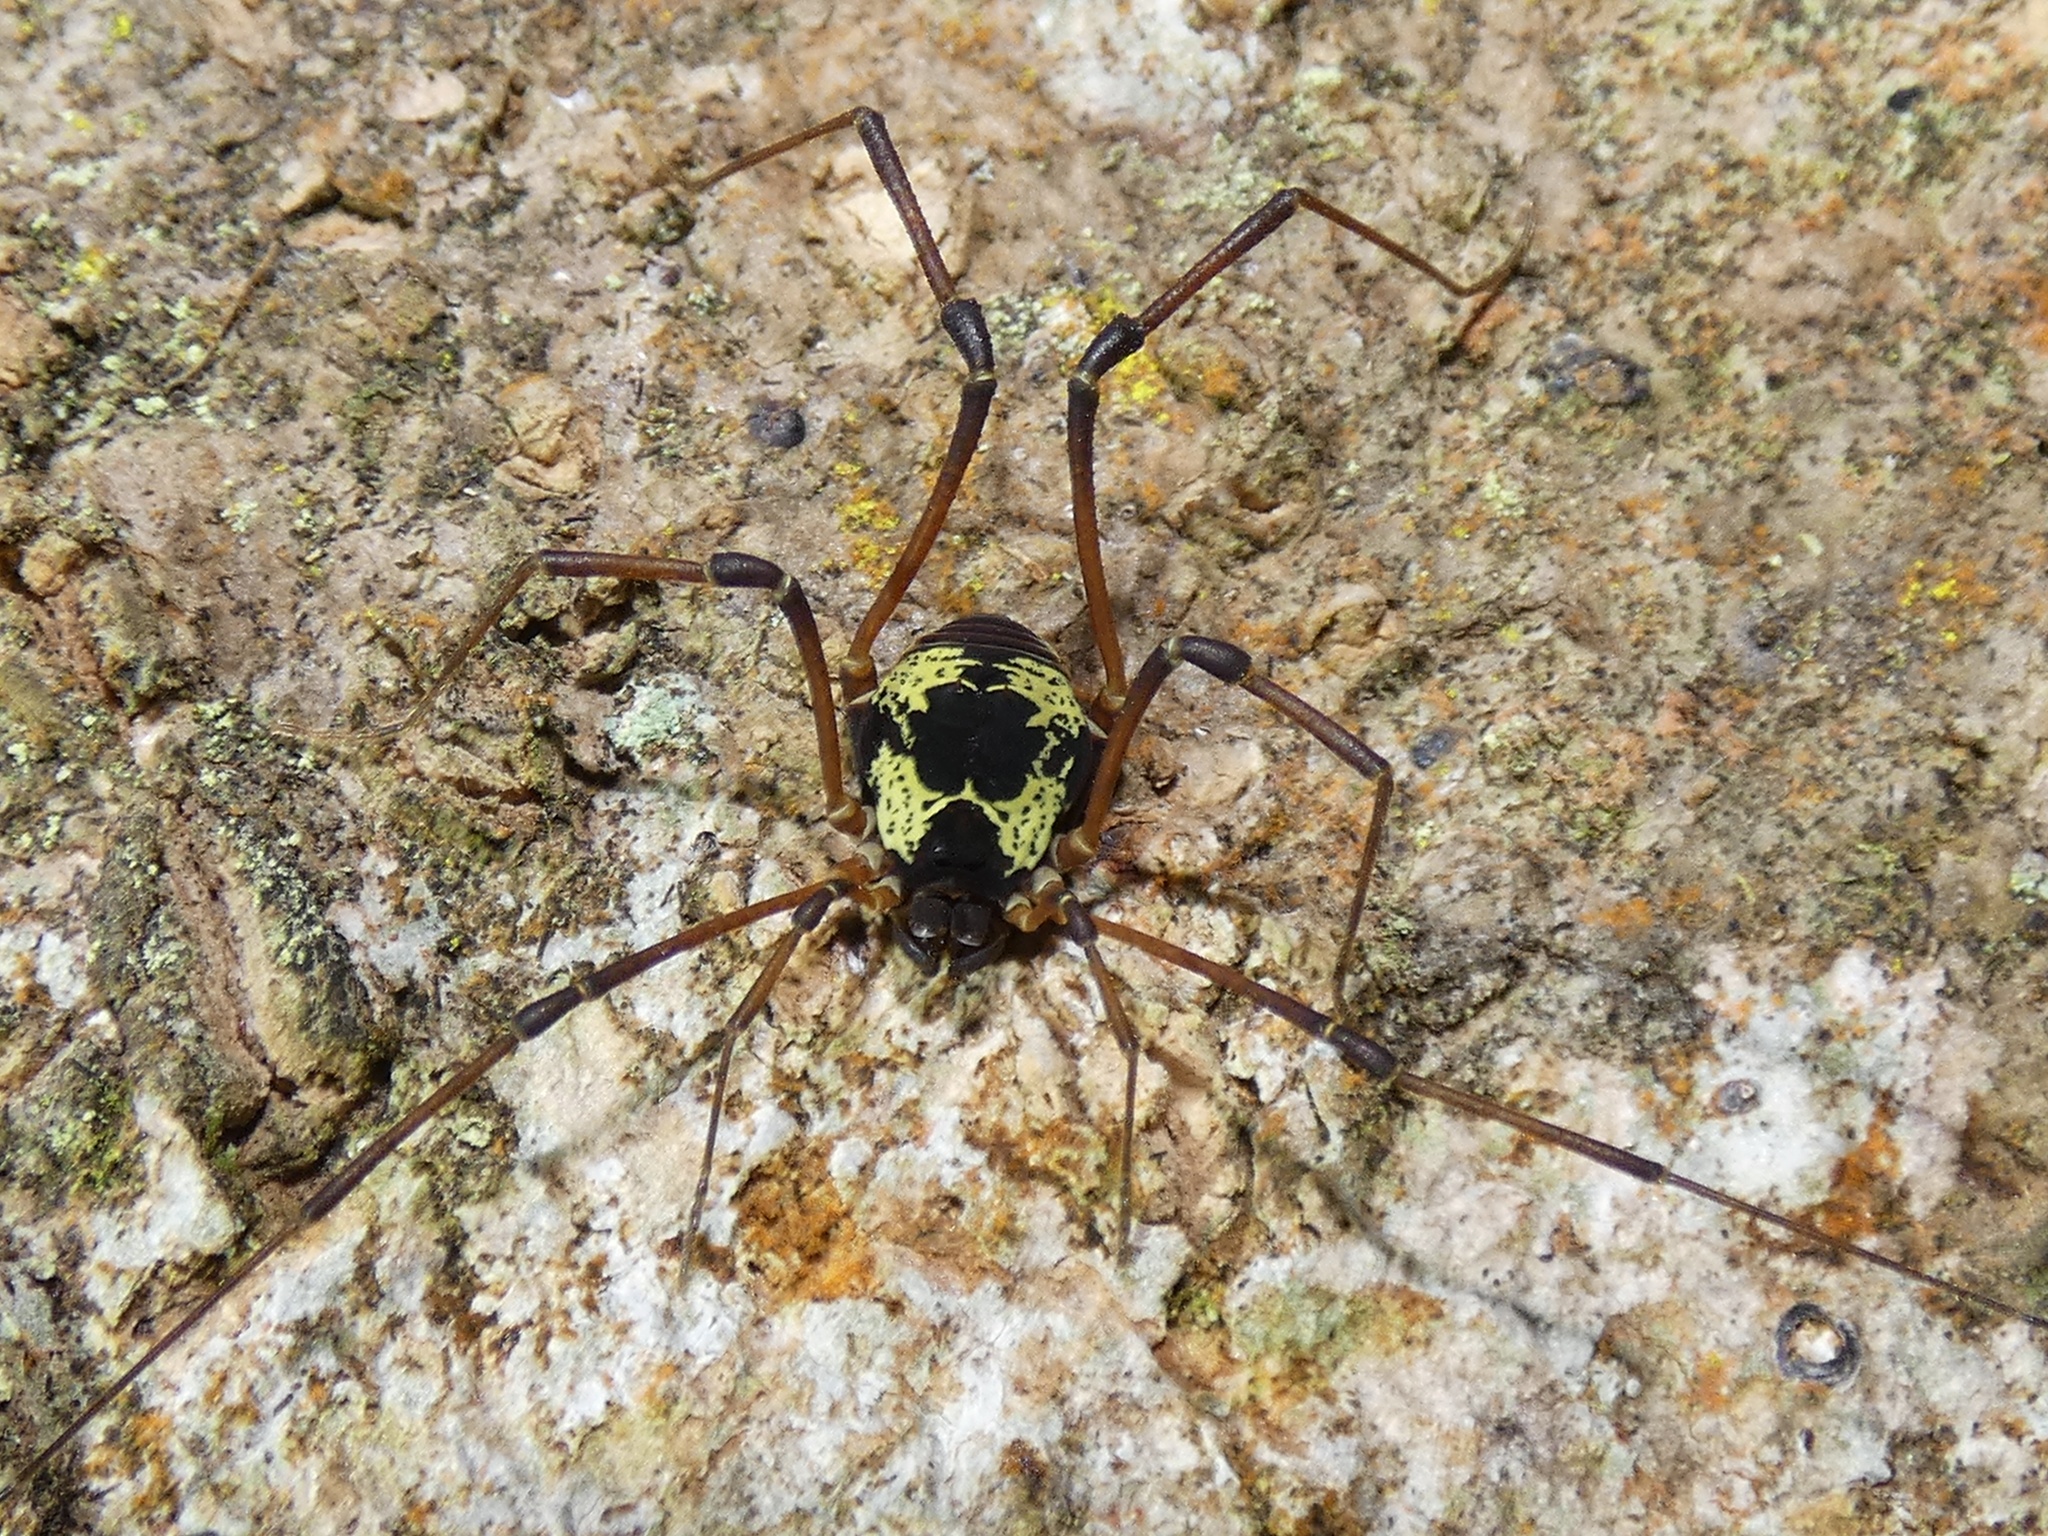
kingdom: Animalia
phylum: Arthropoda
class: Arachnida
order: Opiliones
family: Cosmetidae
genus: Cynorta
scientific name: Cynorta casita
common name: Harvestmen
